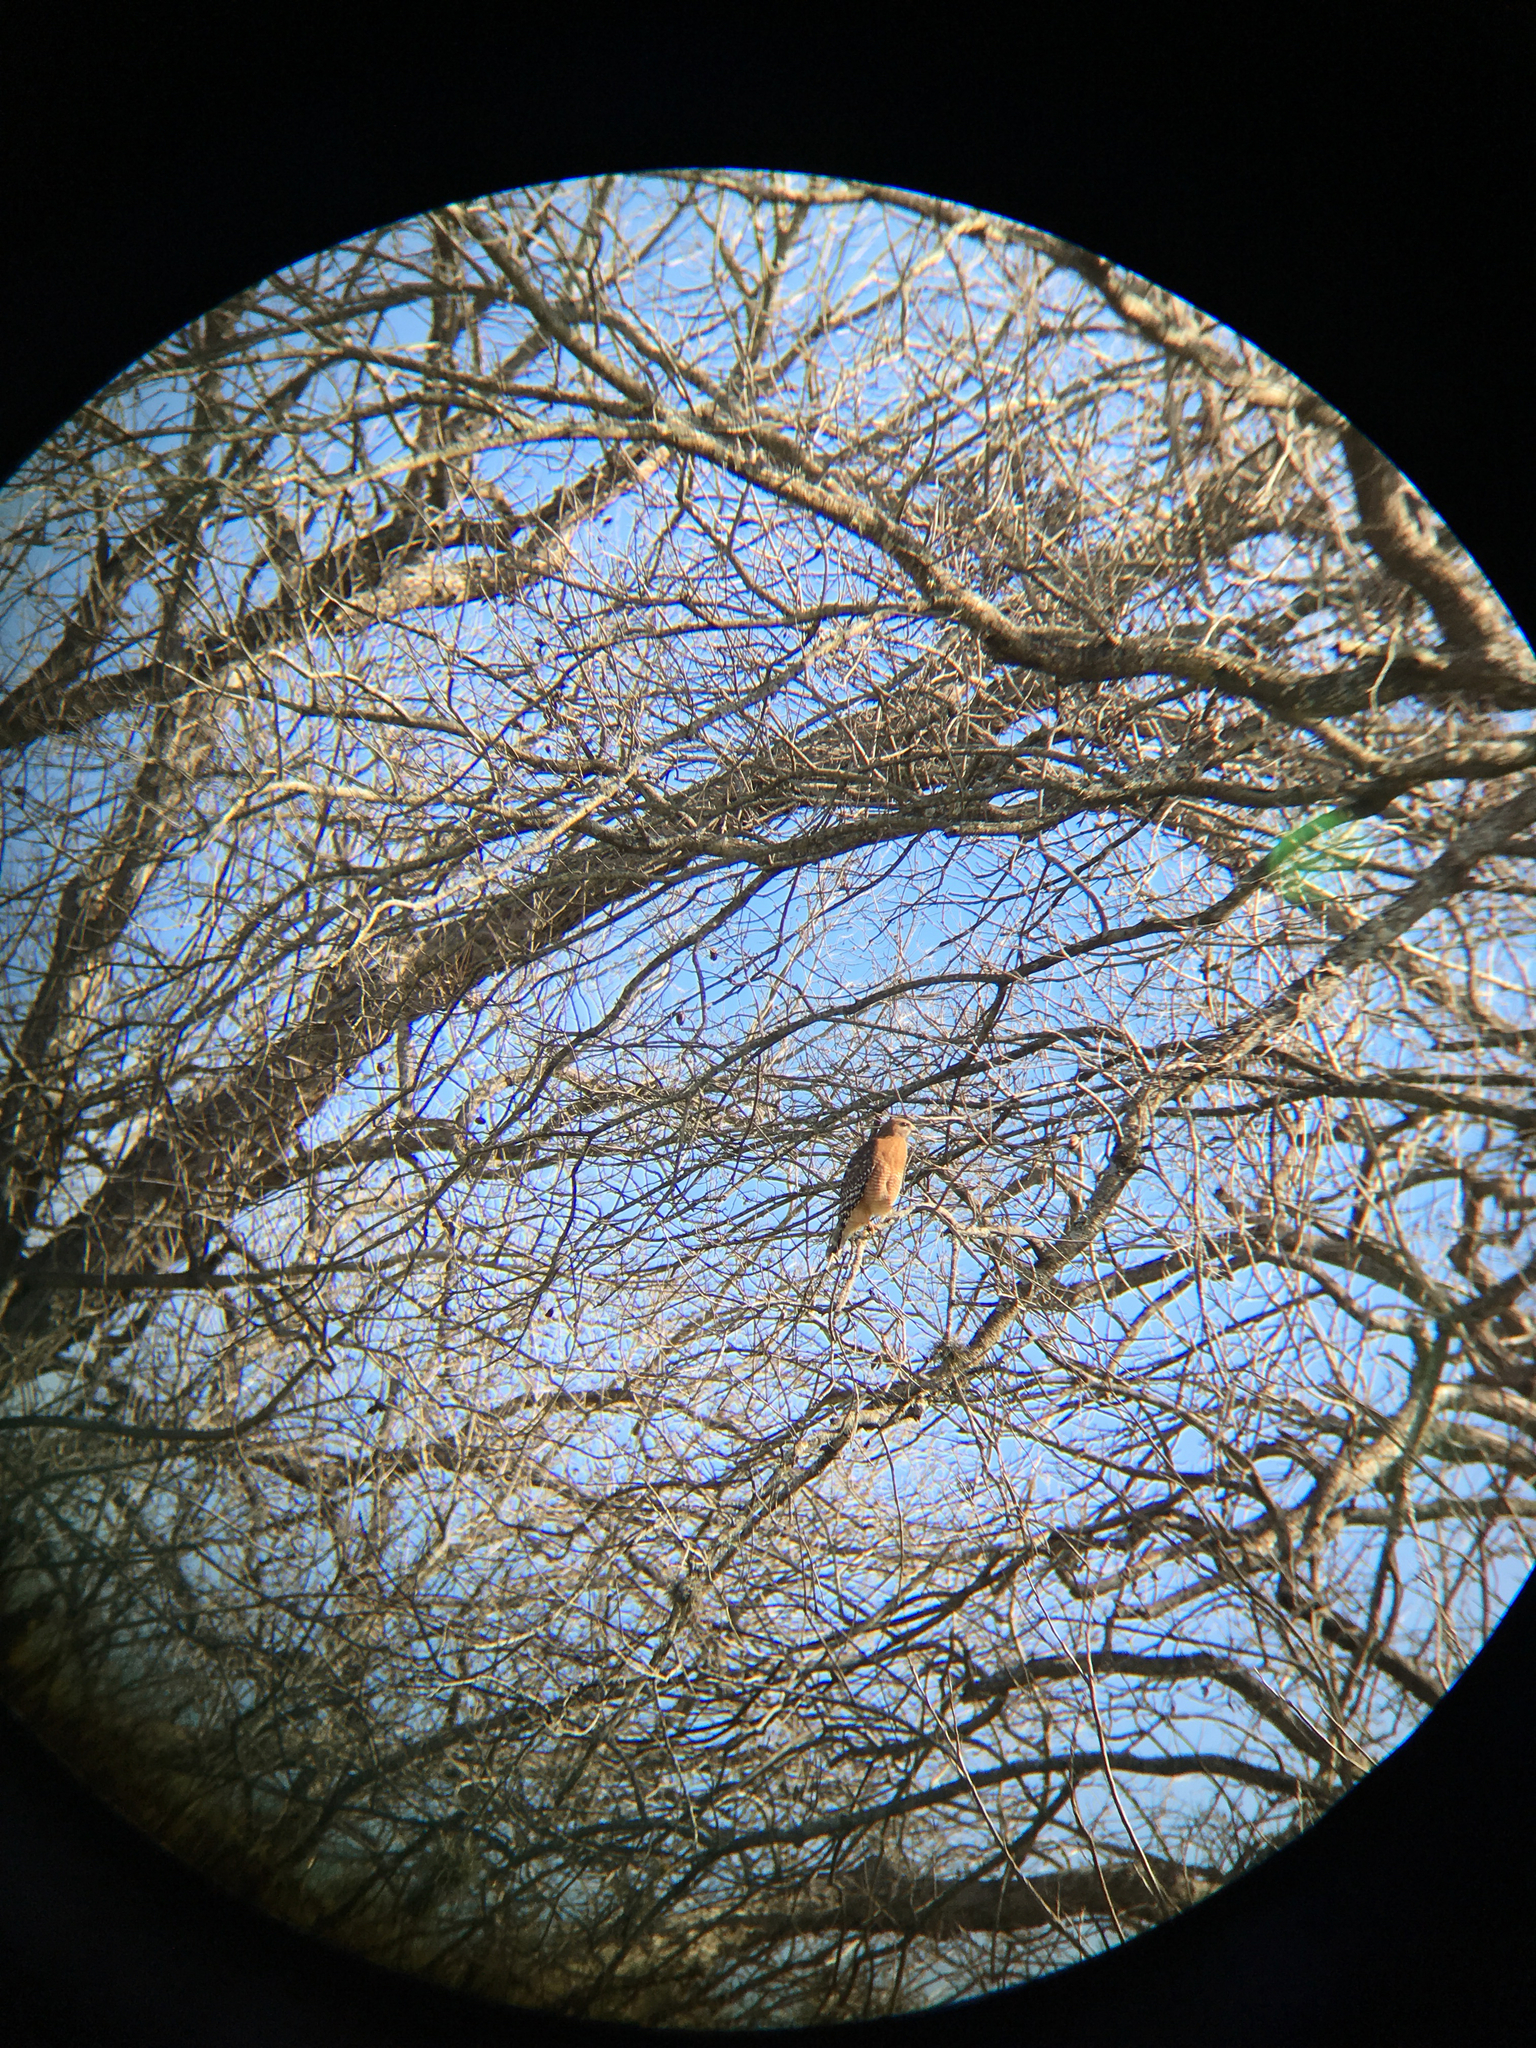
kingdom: Animalia
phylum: Chordata
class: Aves
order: Accipitriformes
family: Accipitridae
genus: Buteo
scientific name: Buteo lineatus
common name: Red-shouldered hawk
